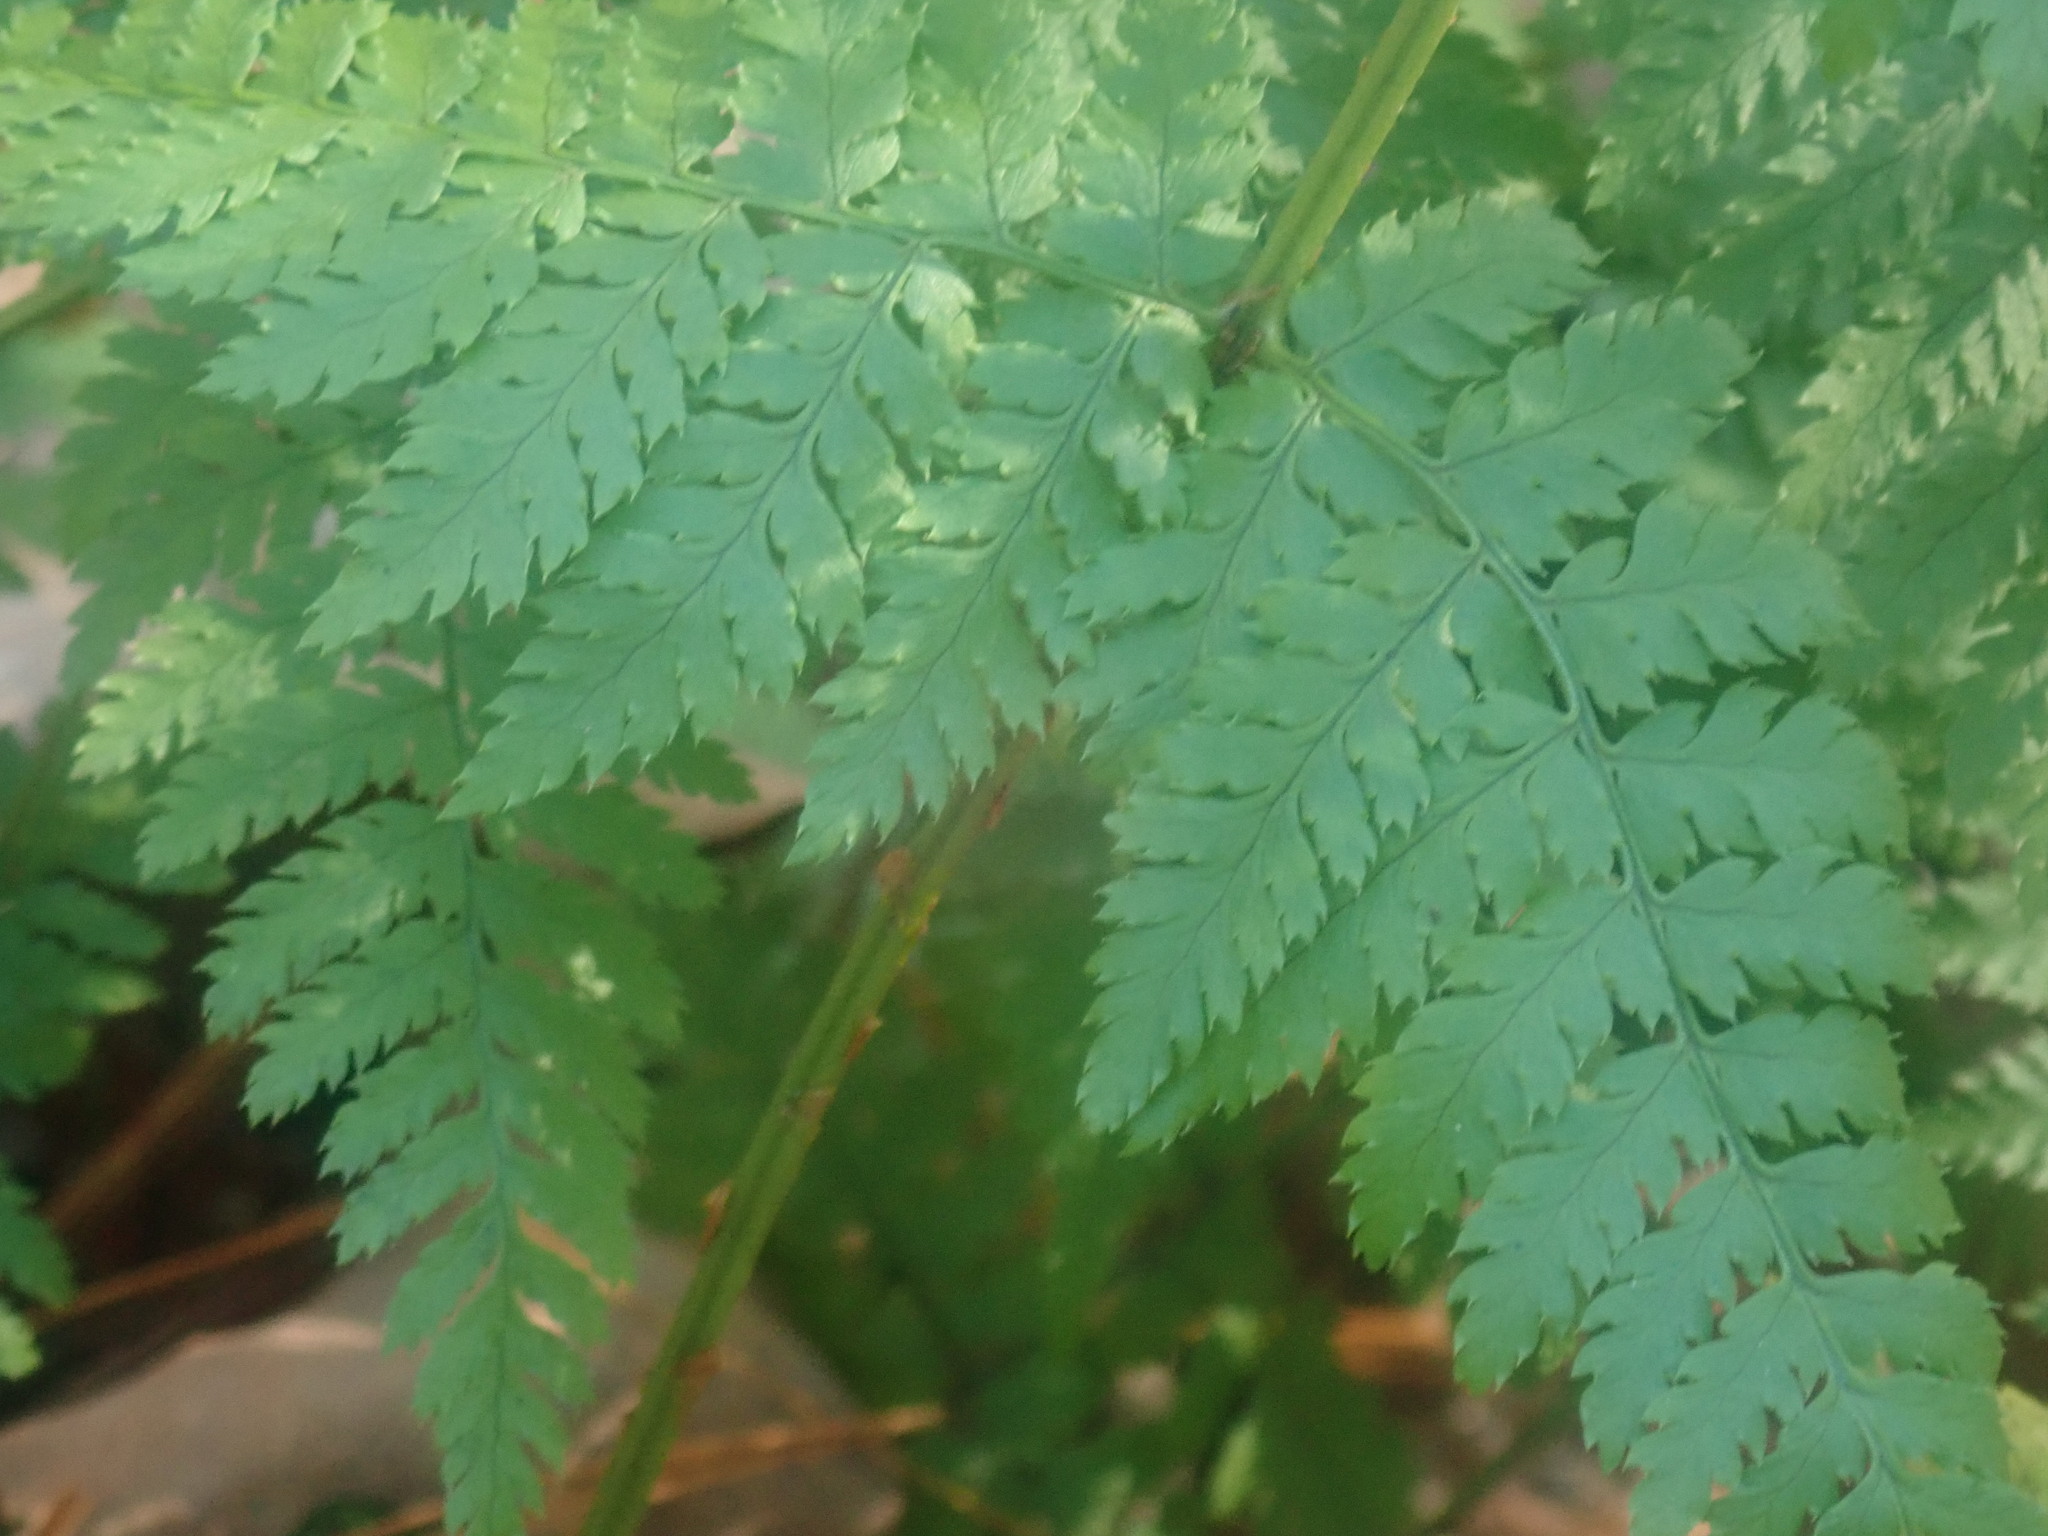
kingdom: Plantae
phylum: Tracheophyta
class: Polypodiopsida
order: Polypodiales
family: Dryopteridaceae
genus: Dryopteris
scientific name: Dryopteris intermedia
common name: Evergreen wood fern
